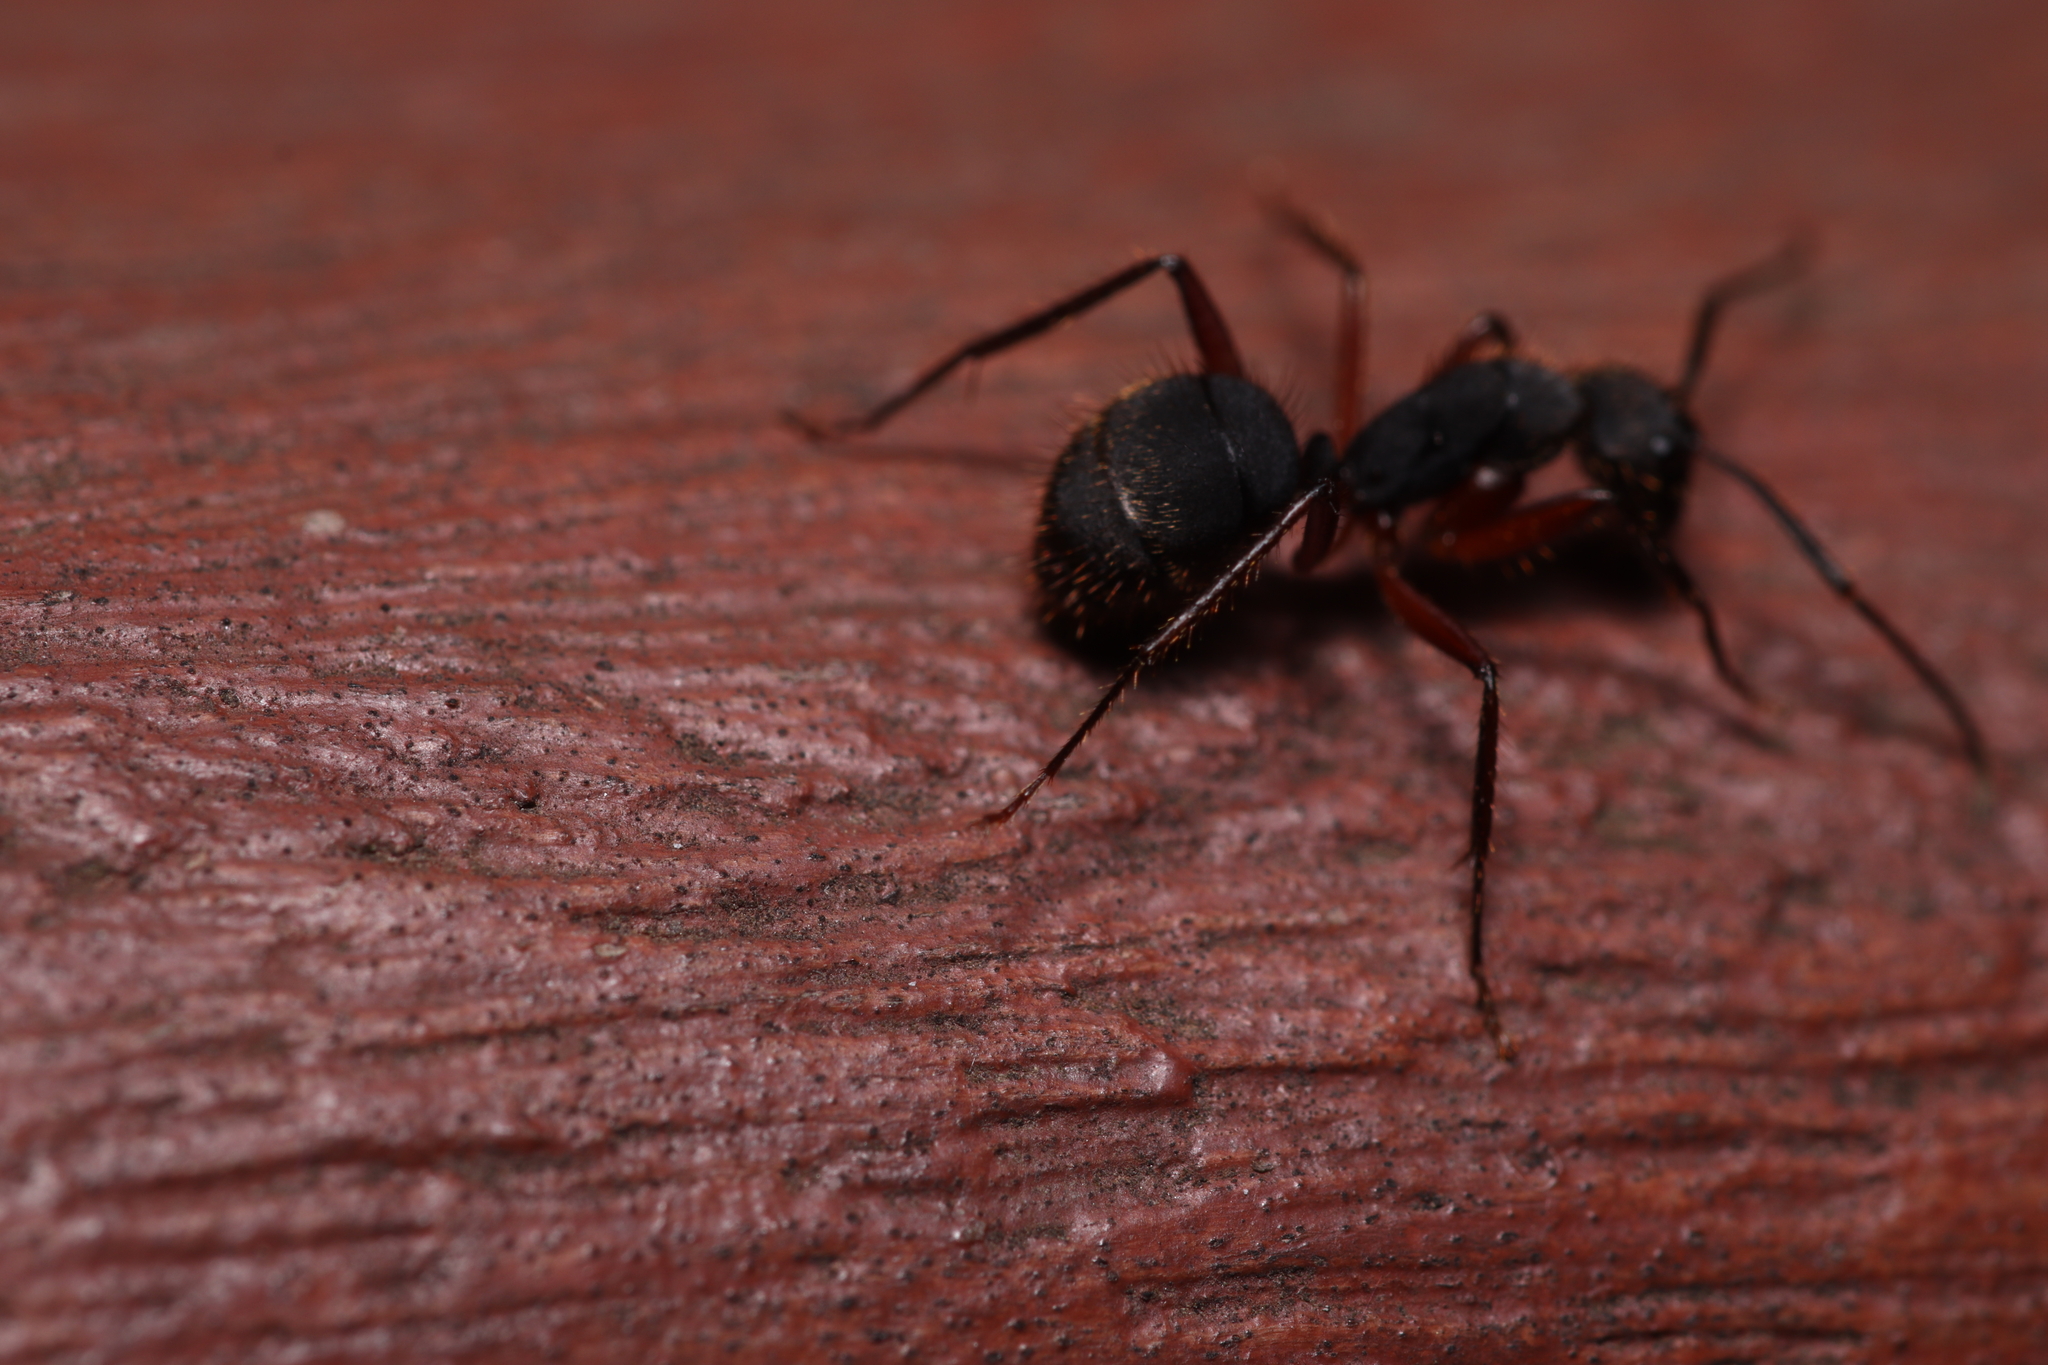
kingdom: Animalia
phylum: Arthropoda
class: Insecta
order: Hymenoptera
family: Formicidae
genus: Camponotus
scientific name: Camponotus rufipes
